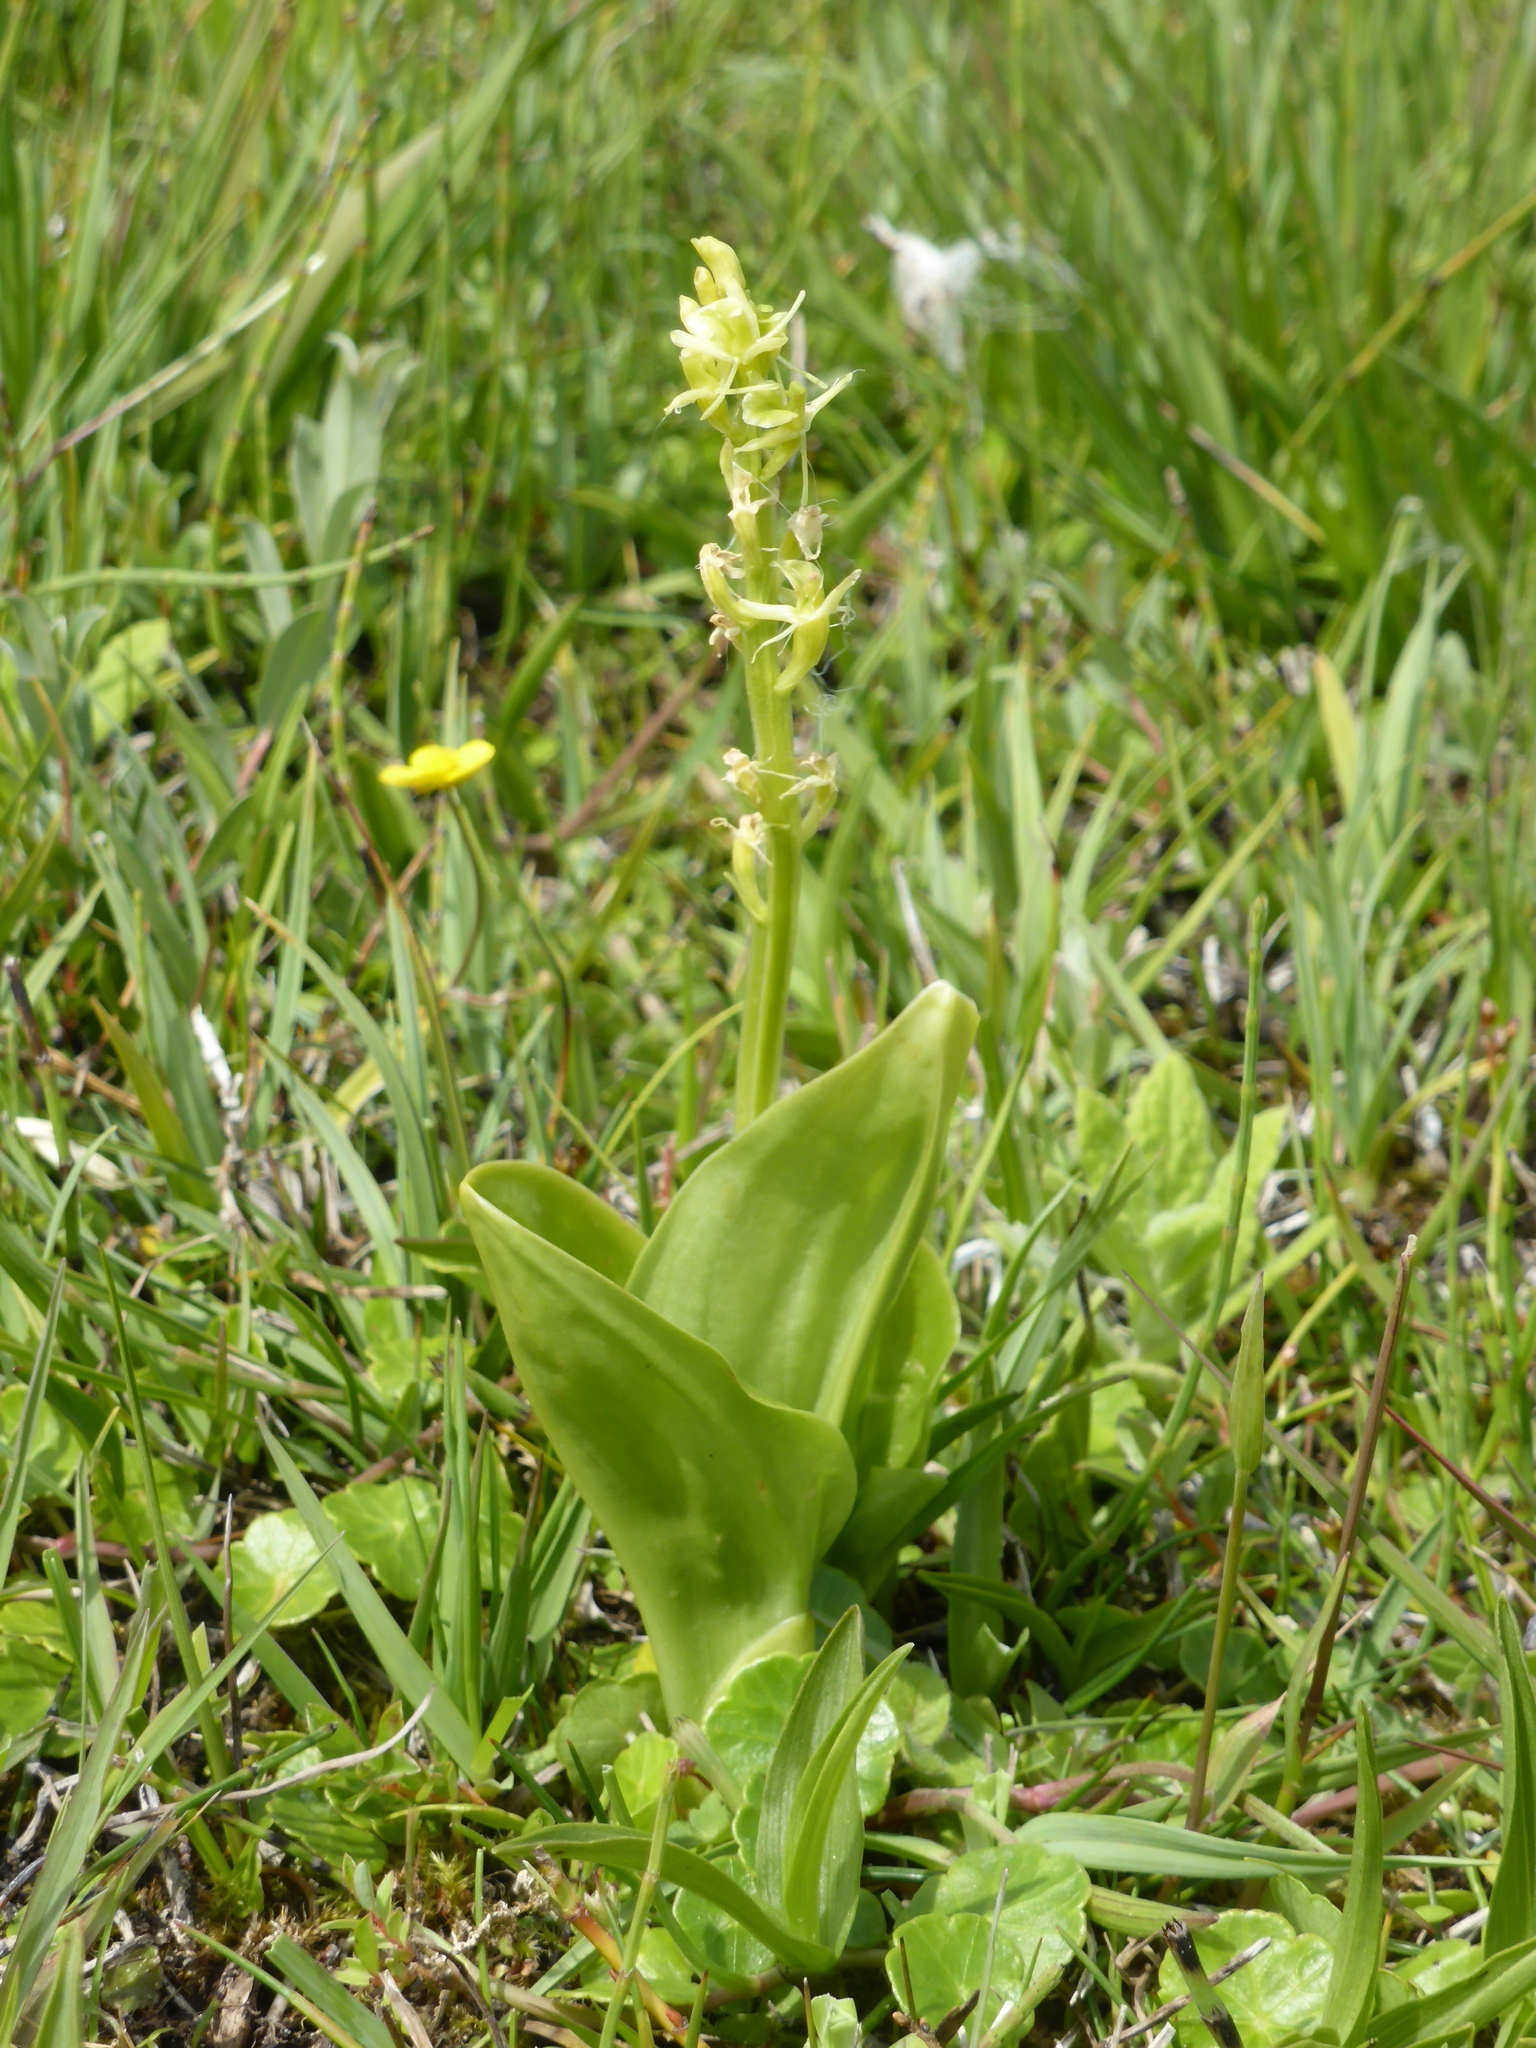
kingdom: Animalia
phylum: Arthropoda
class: Insecta
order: Coleoptera
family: Curculionidae
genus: Liparis
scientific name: Liparis loeselii
